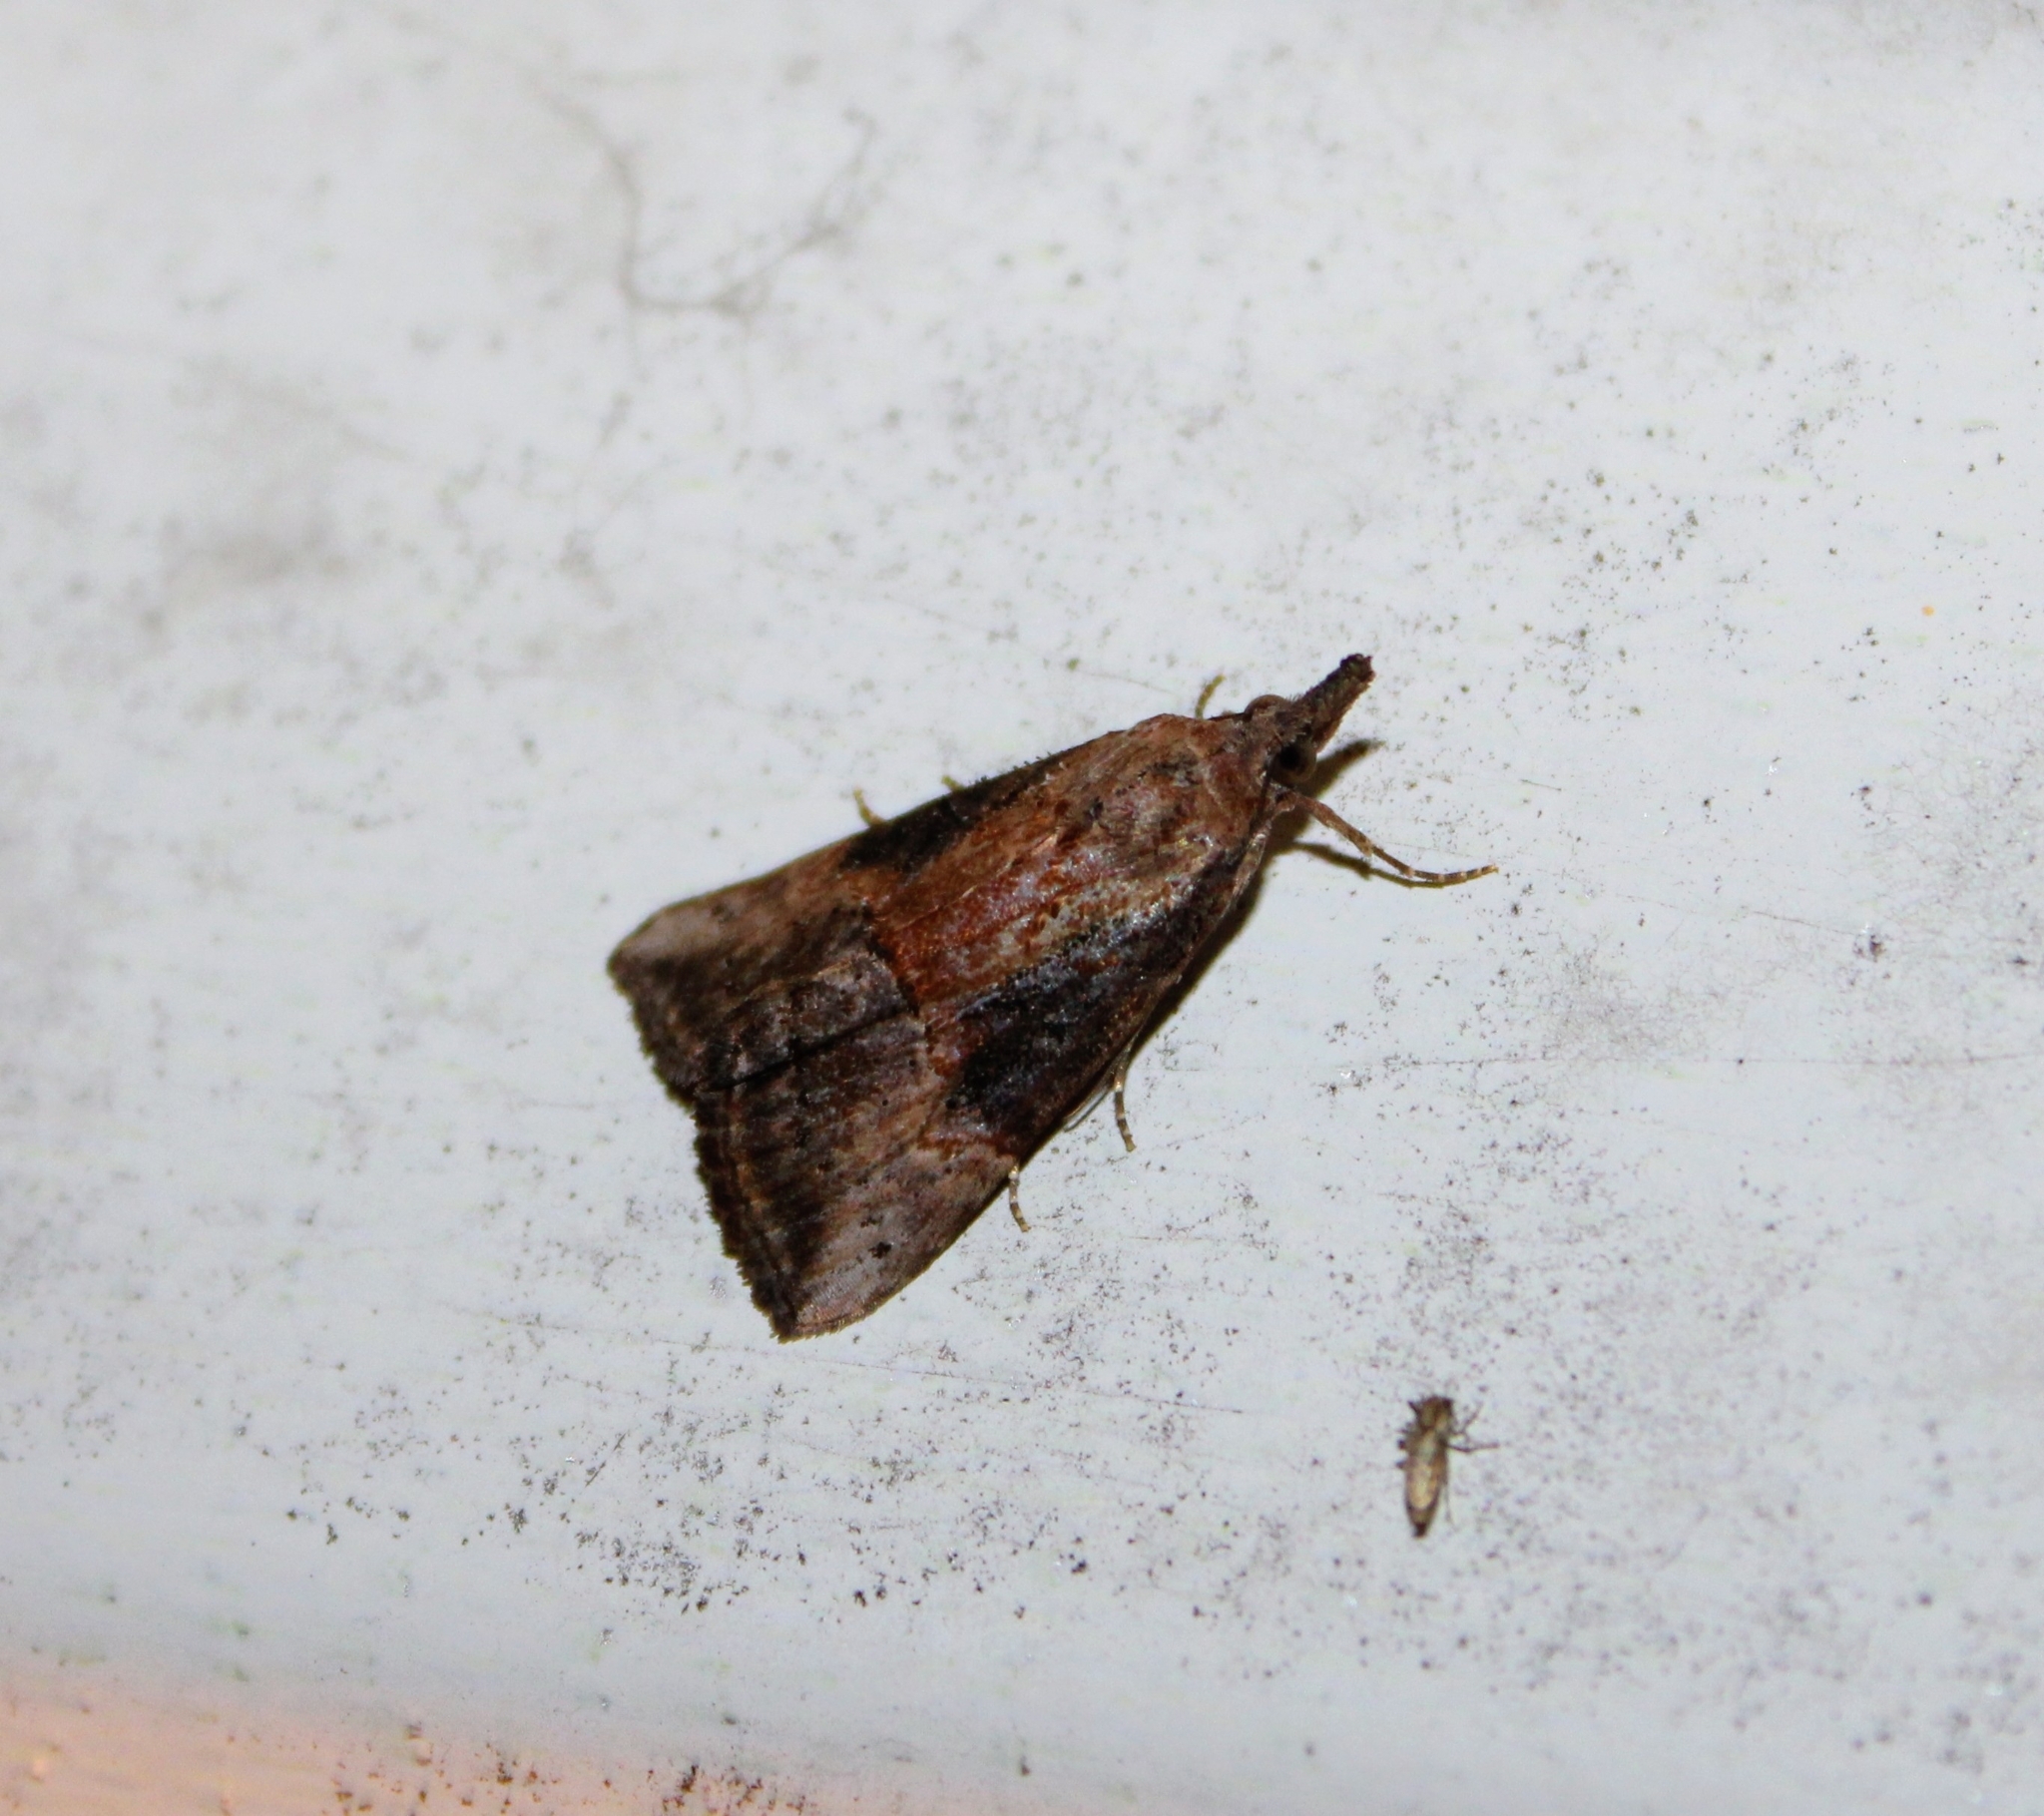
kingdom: Animalia
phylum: Arthropoda
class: Insecta
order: Lepidoptera
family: Erebidae
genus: Hypena
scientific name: Hypena scabra
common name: Green cloverworm
